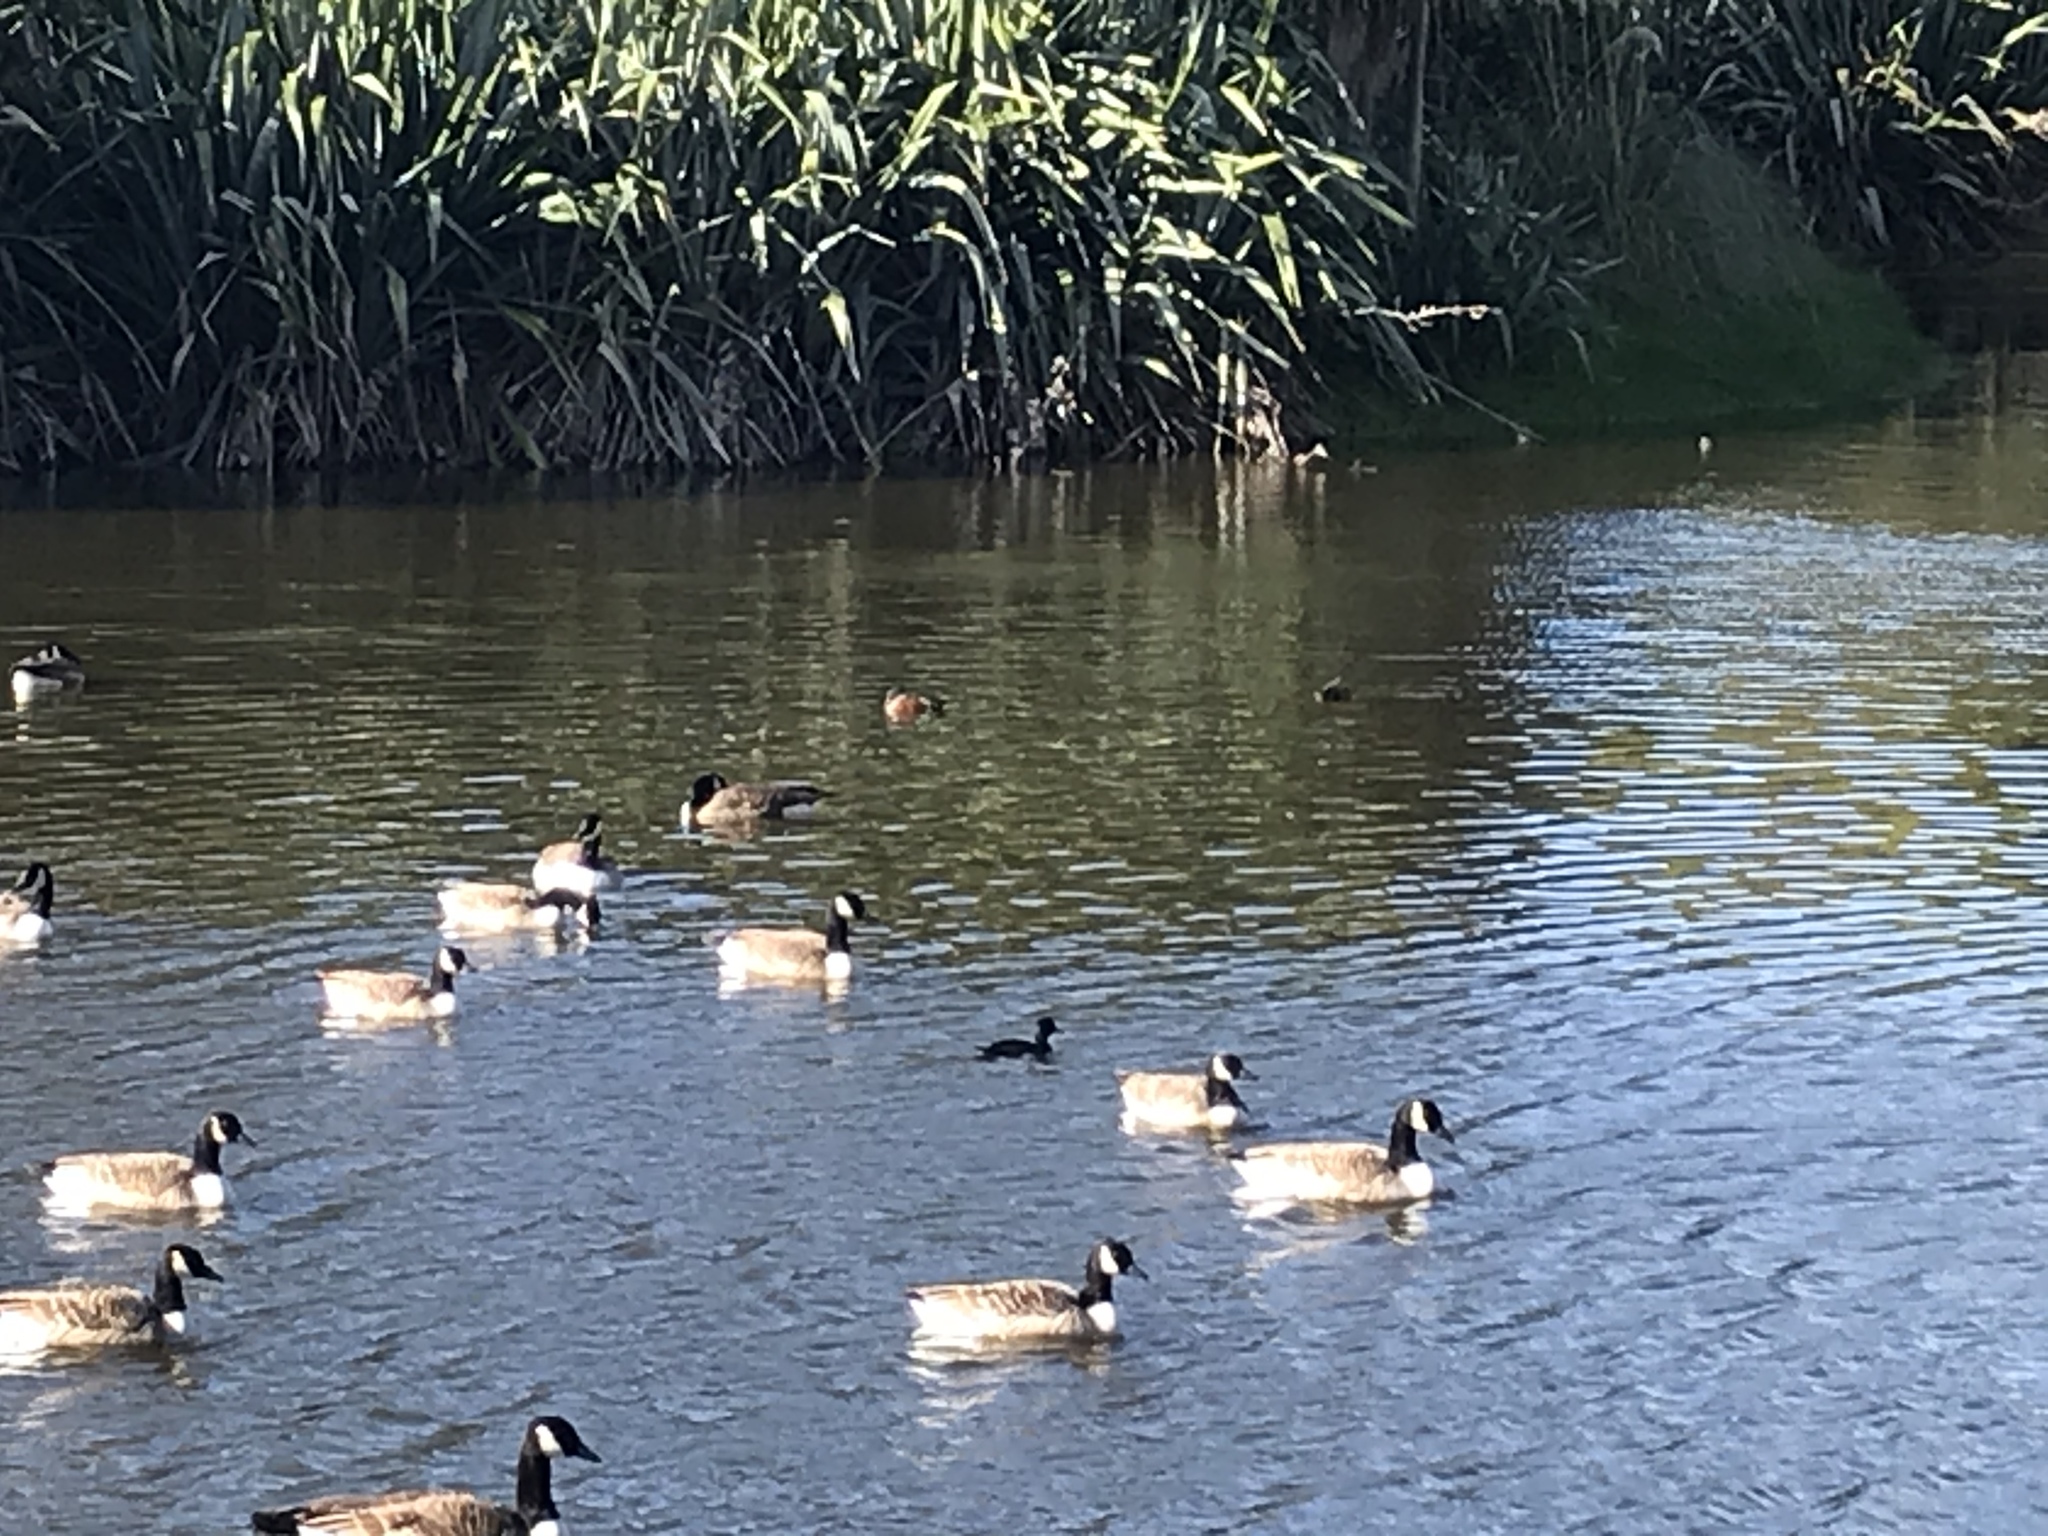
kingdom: Animalia
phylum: Chordata
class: Aves
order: Anseriformes
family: Anatidae
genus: Spatula
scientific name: Spatula rhynchotis
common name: Australian shoveler
